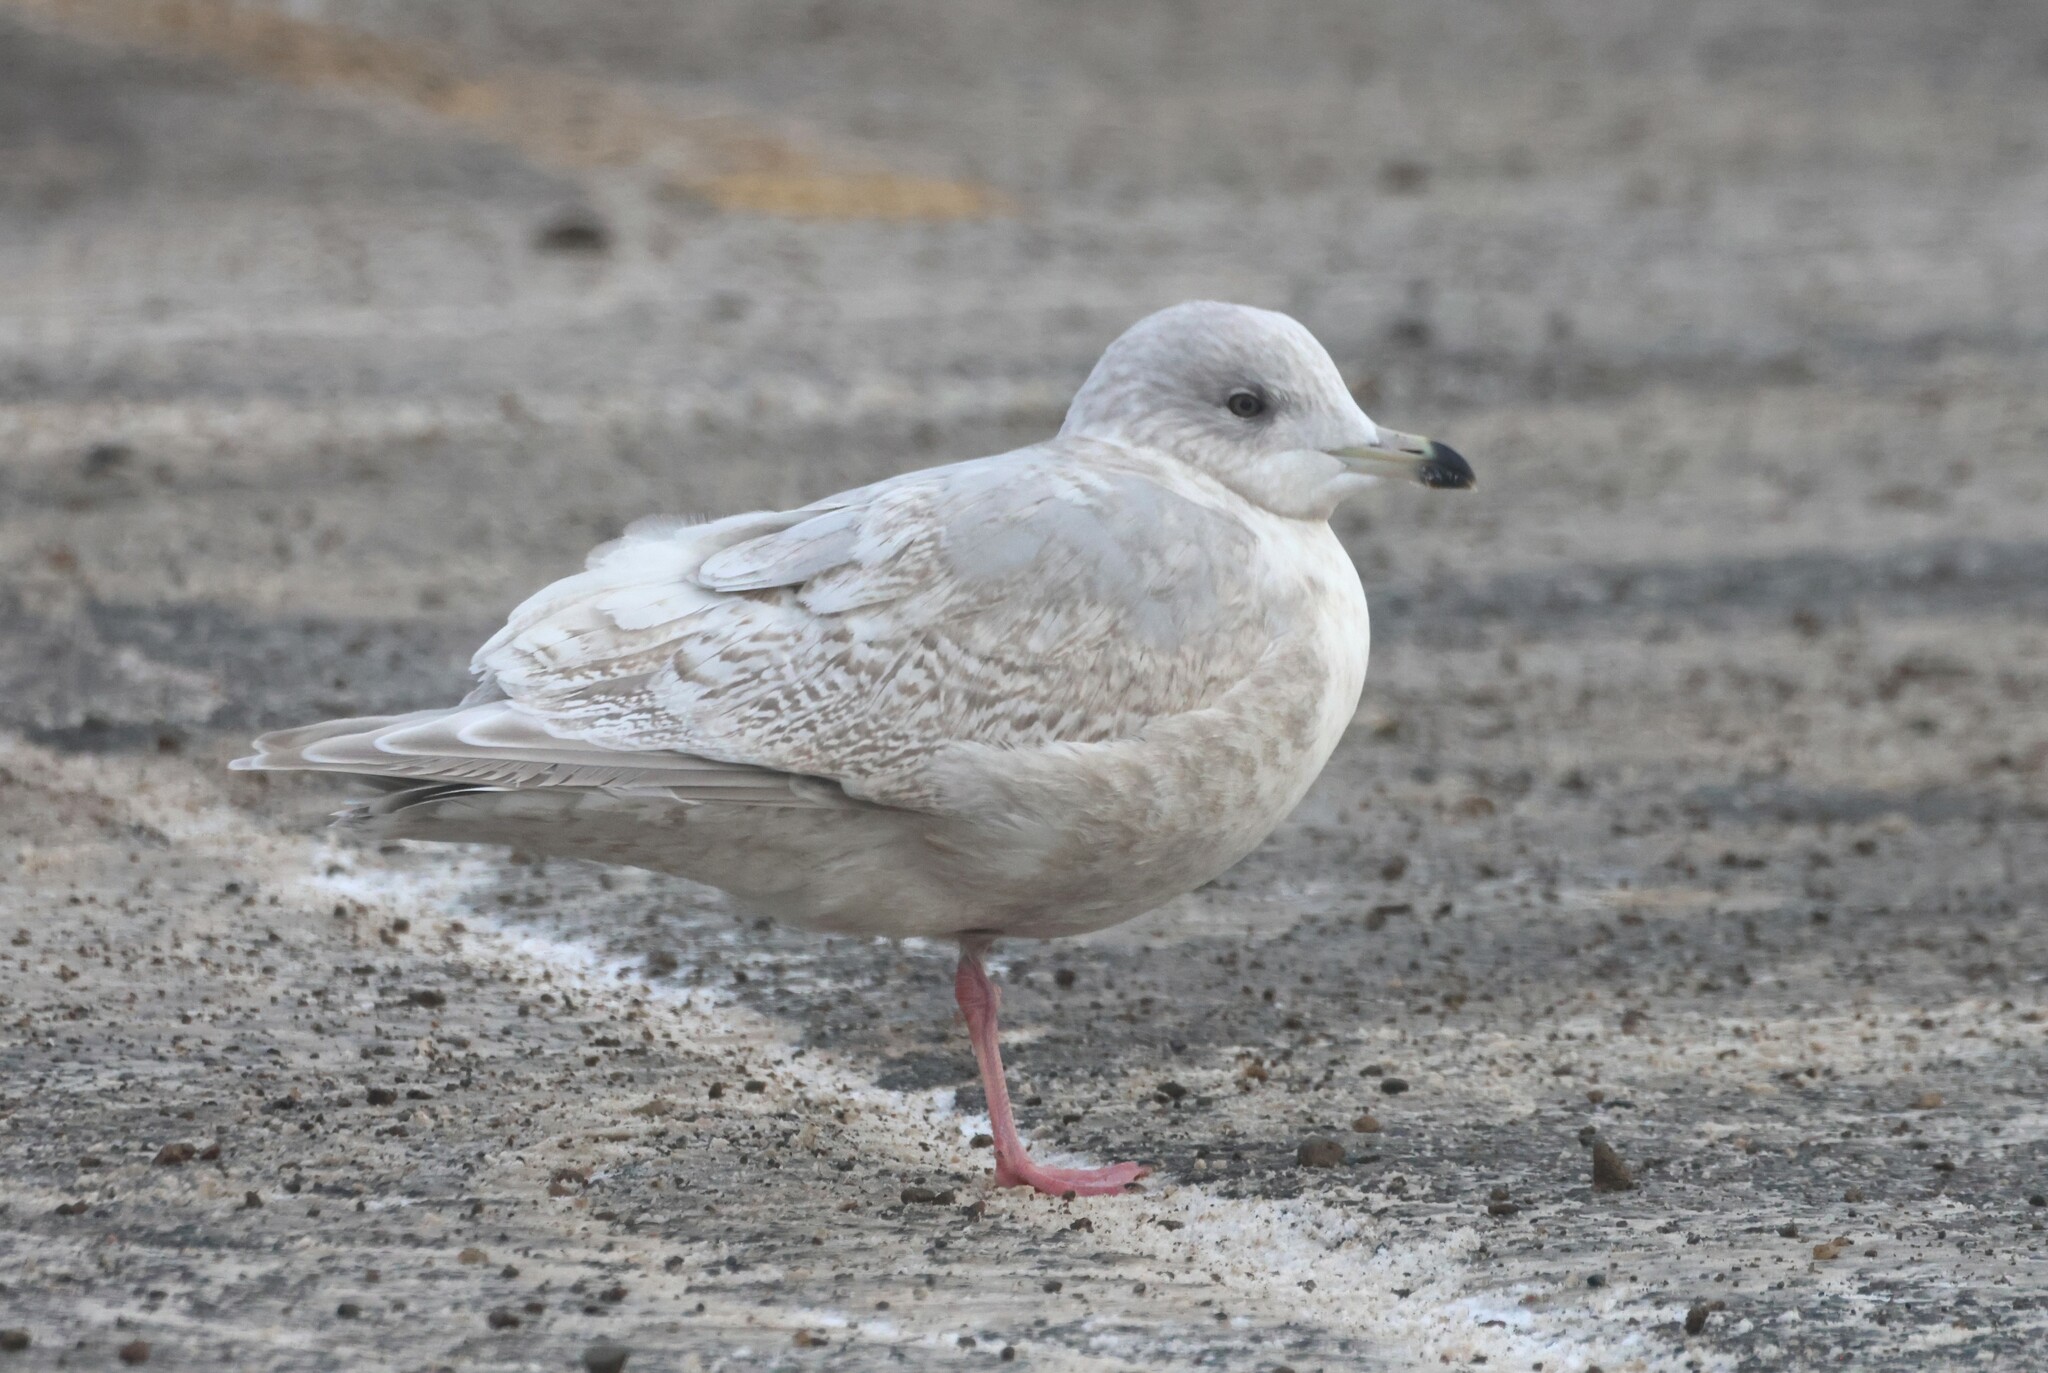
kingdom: Animalia
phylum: Chordata
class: Aves
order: Charadriiformes
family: Laridae
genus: Larus
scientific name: Larus glaucoides
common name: Iceland gull
